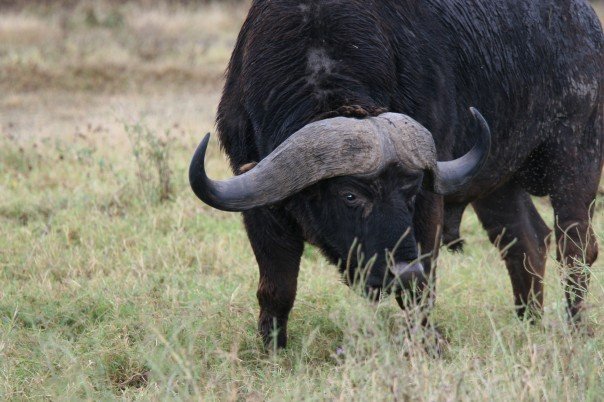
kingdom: Animalia
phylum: Chordata
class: Mammalia
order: Artiodactyla
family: Bovidae
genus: Syncerus
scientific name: Syncerus caffer
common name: African buffalo
